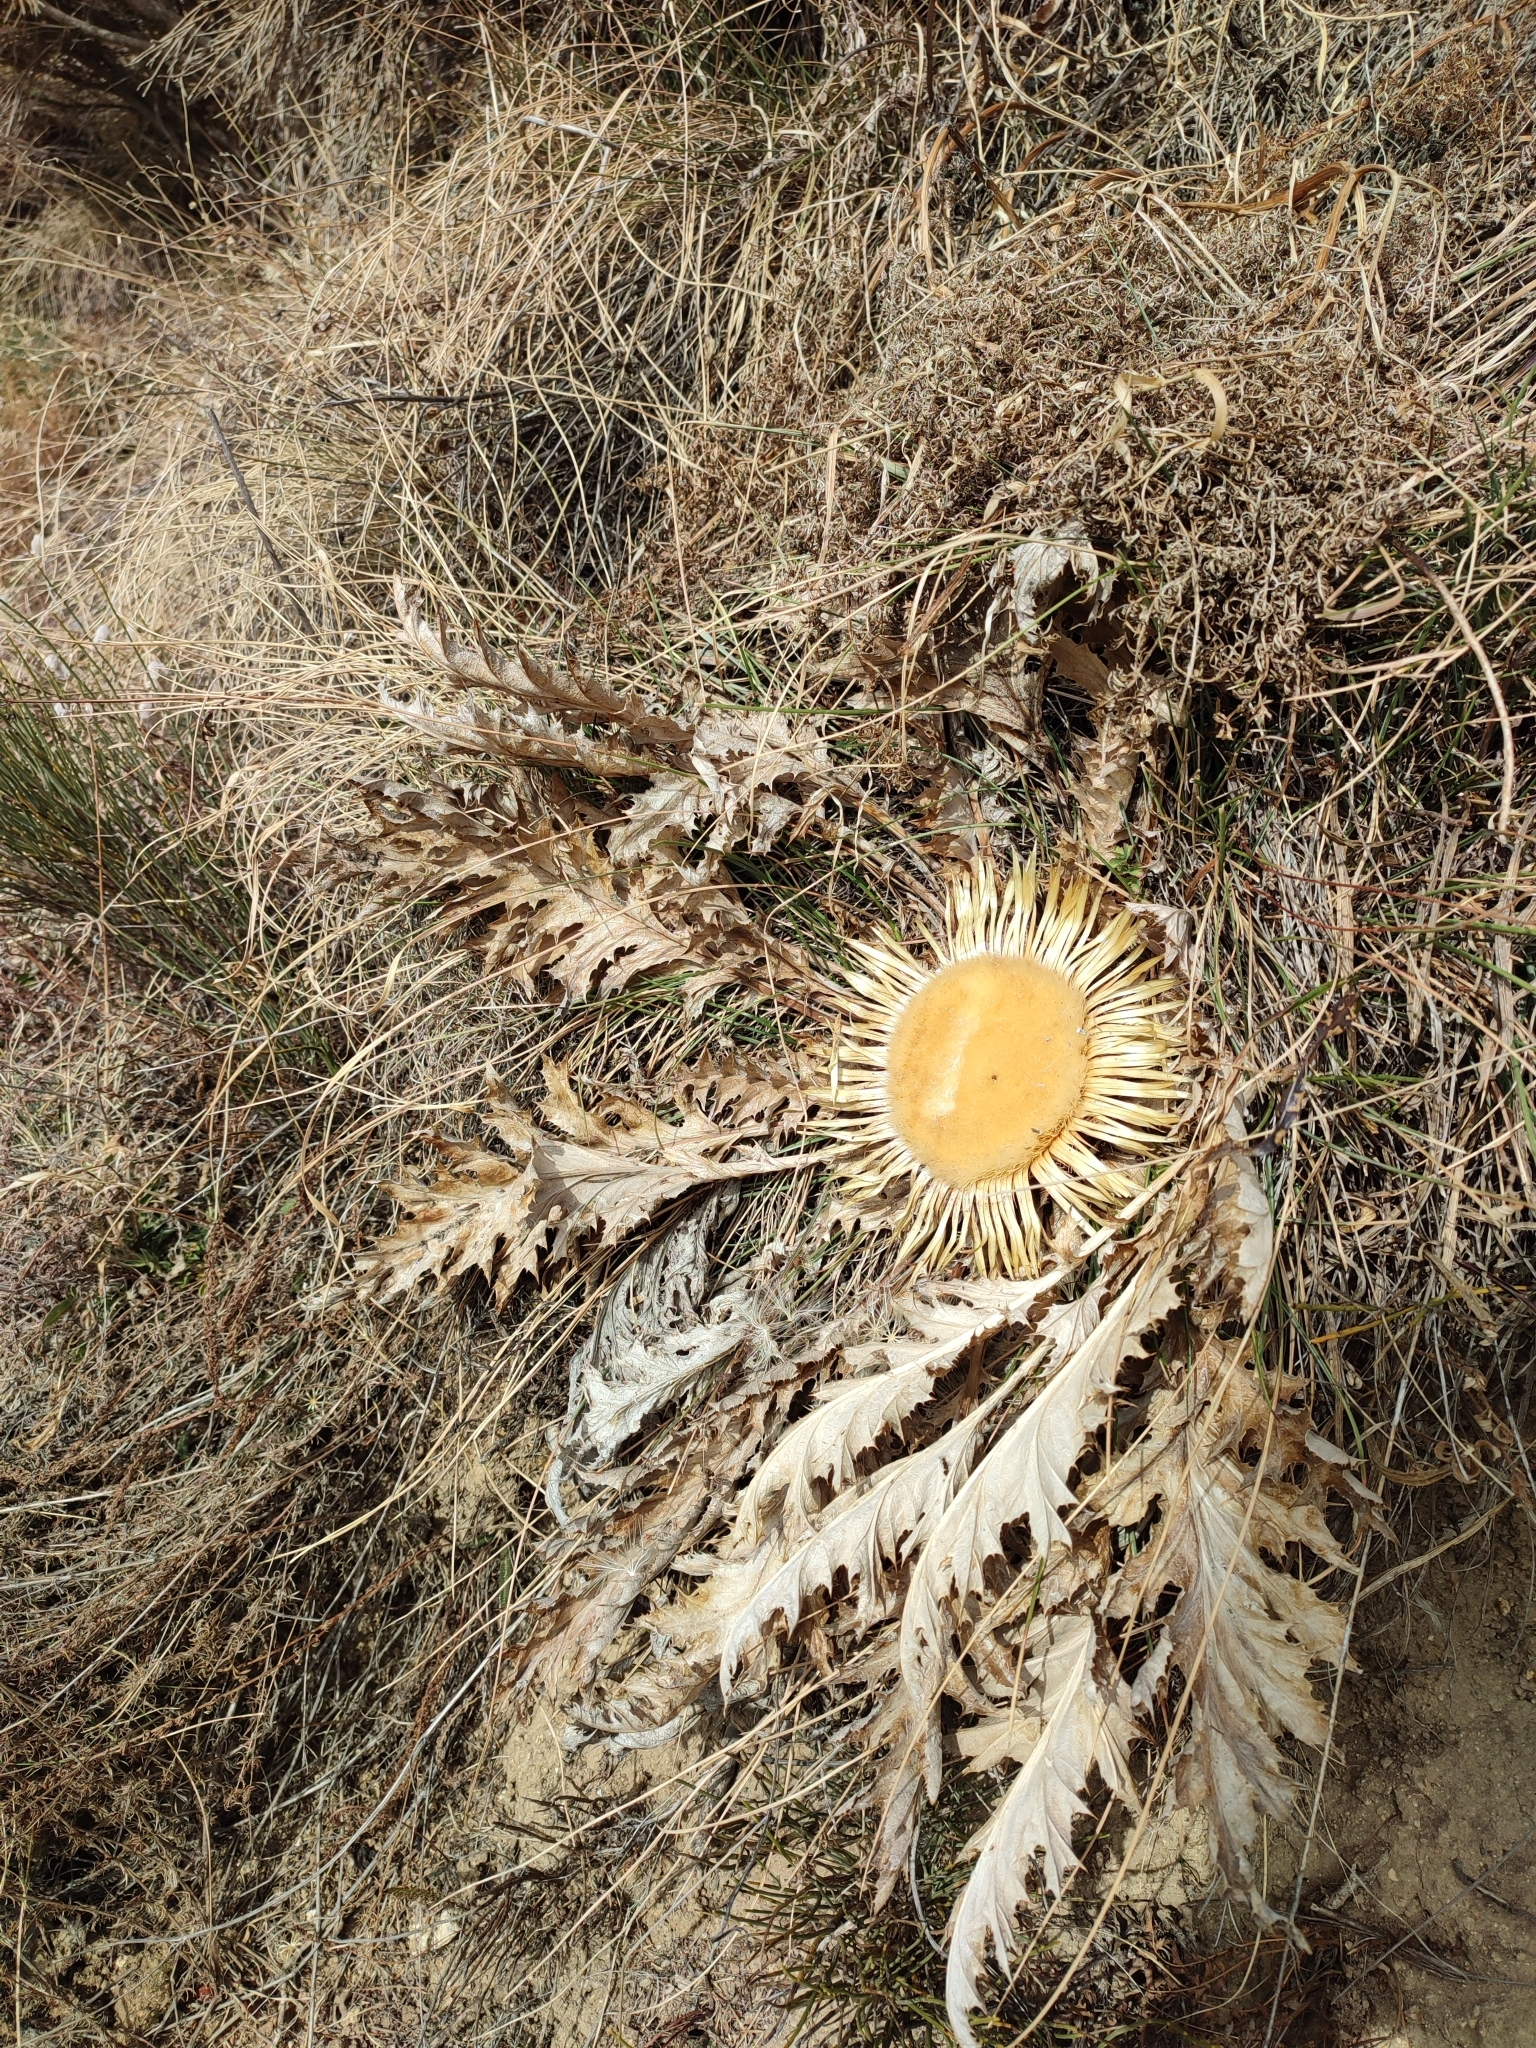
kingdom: Plantae
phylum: Tracheophyta
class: Magnoliopsida
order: Asterales
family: Asteraceae
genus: Carlina
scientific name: Carlina acanthifolia
